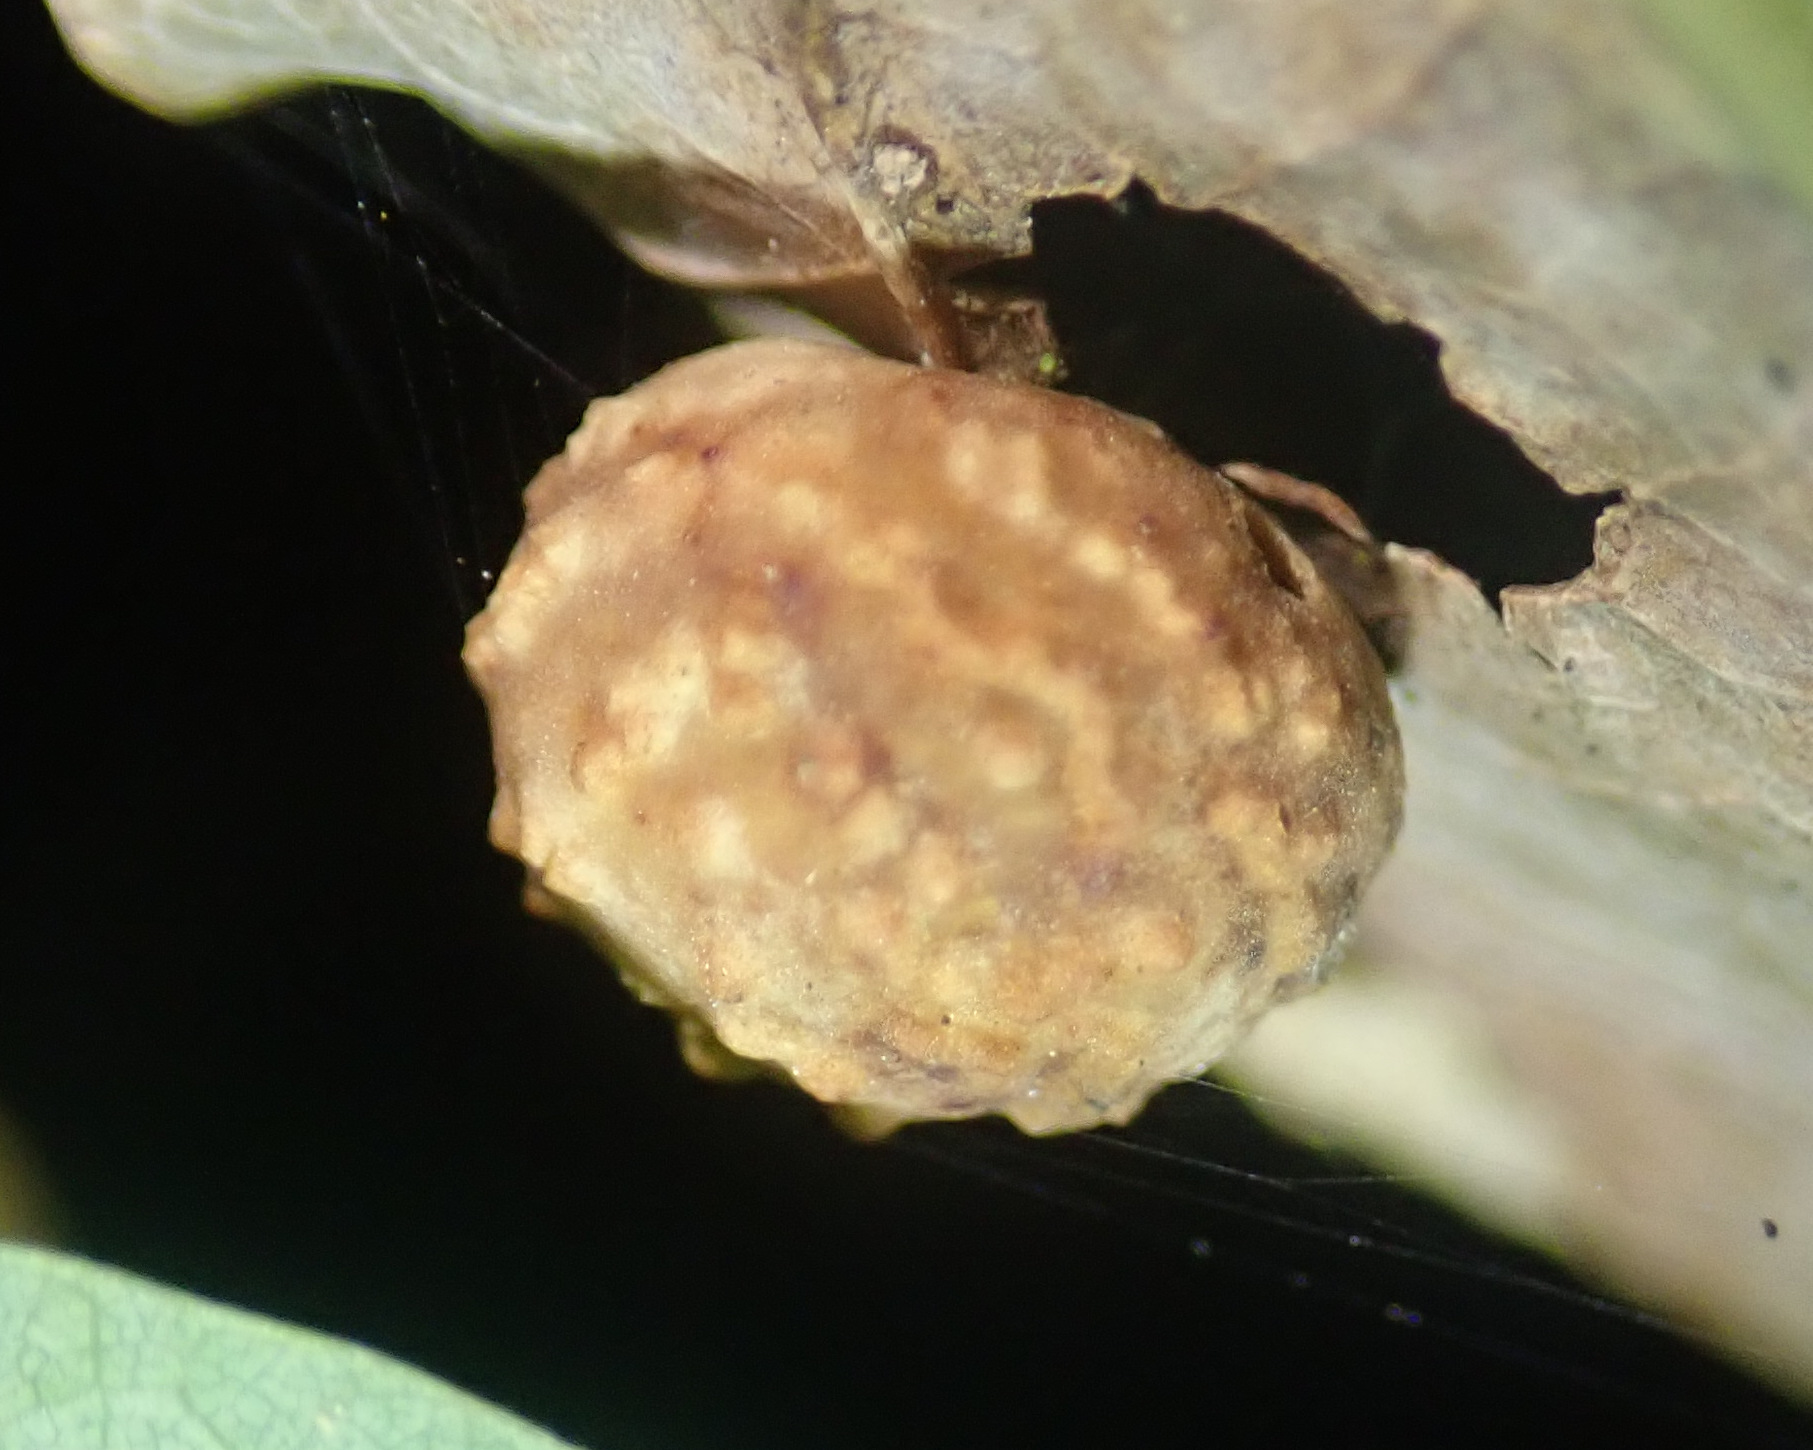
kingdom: Animalia
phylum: Arthropoda
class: Insecta
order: Hymenoptera
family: Cynipidae
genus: Cynips
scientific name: Cynips longiventris
